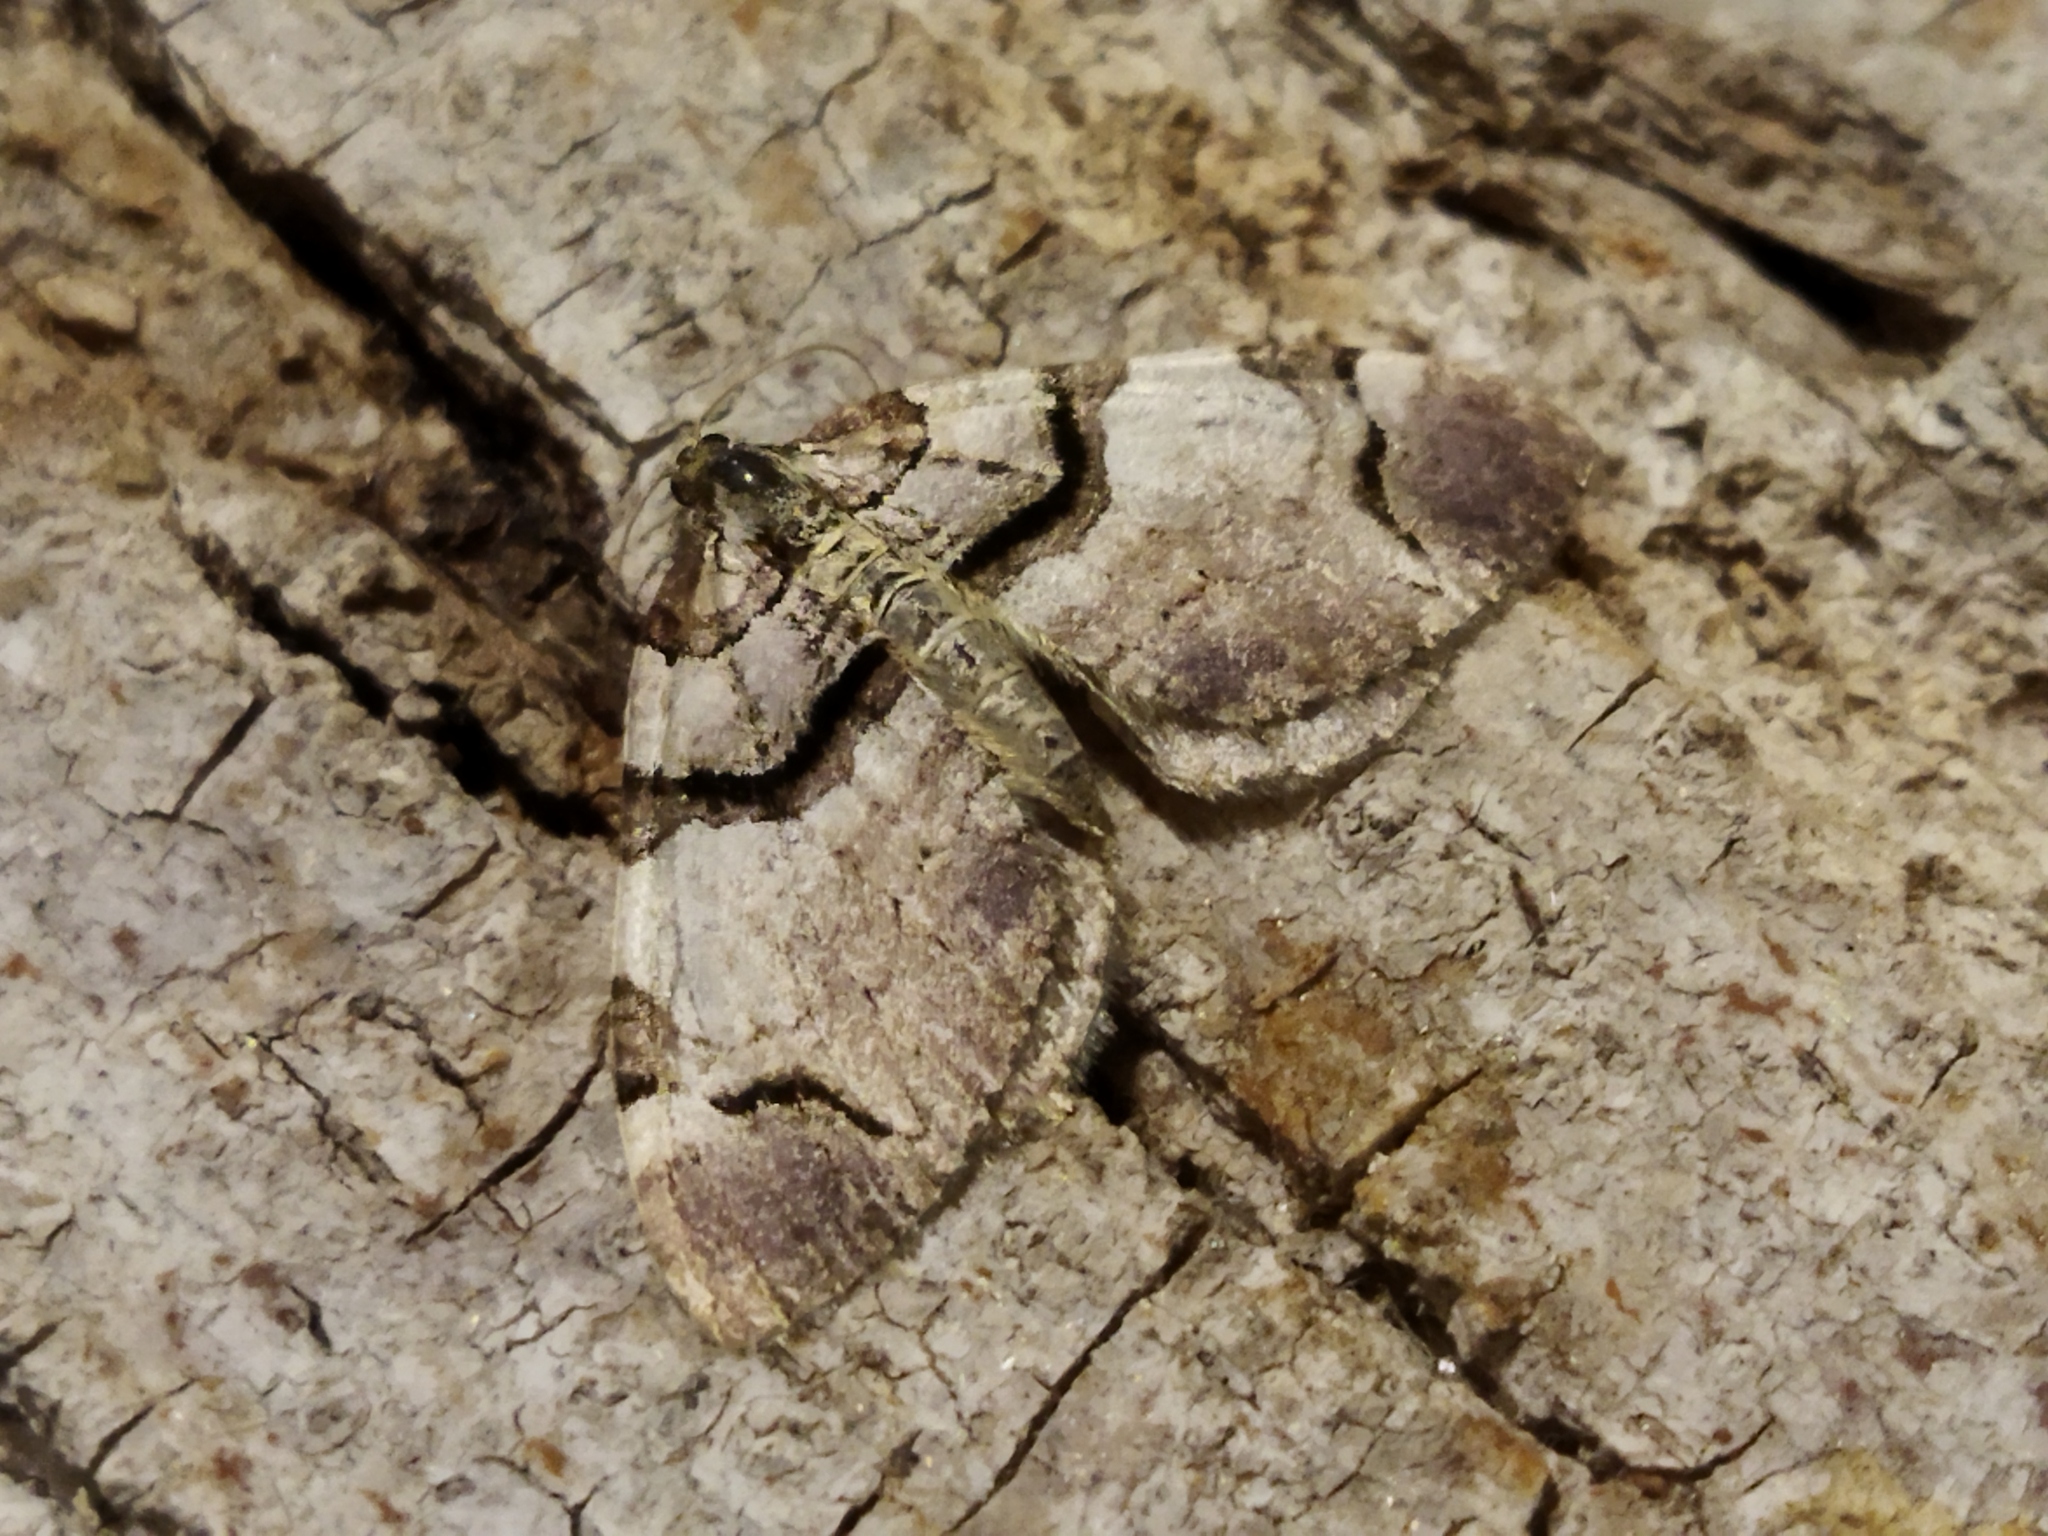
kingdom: Animalia
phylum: Arthropoda
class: Insecta
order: Lepidoptera
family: Geometridae
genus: Anticlea
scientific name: Anticlea derivata
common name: Streamer
